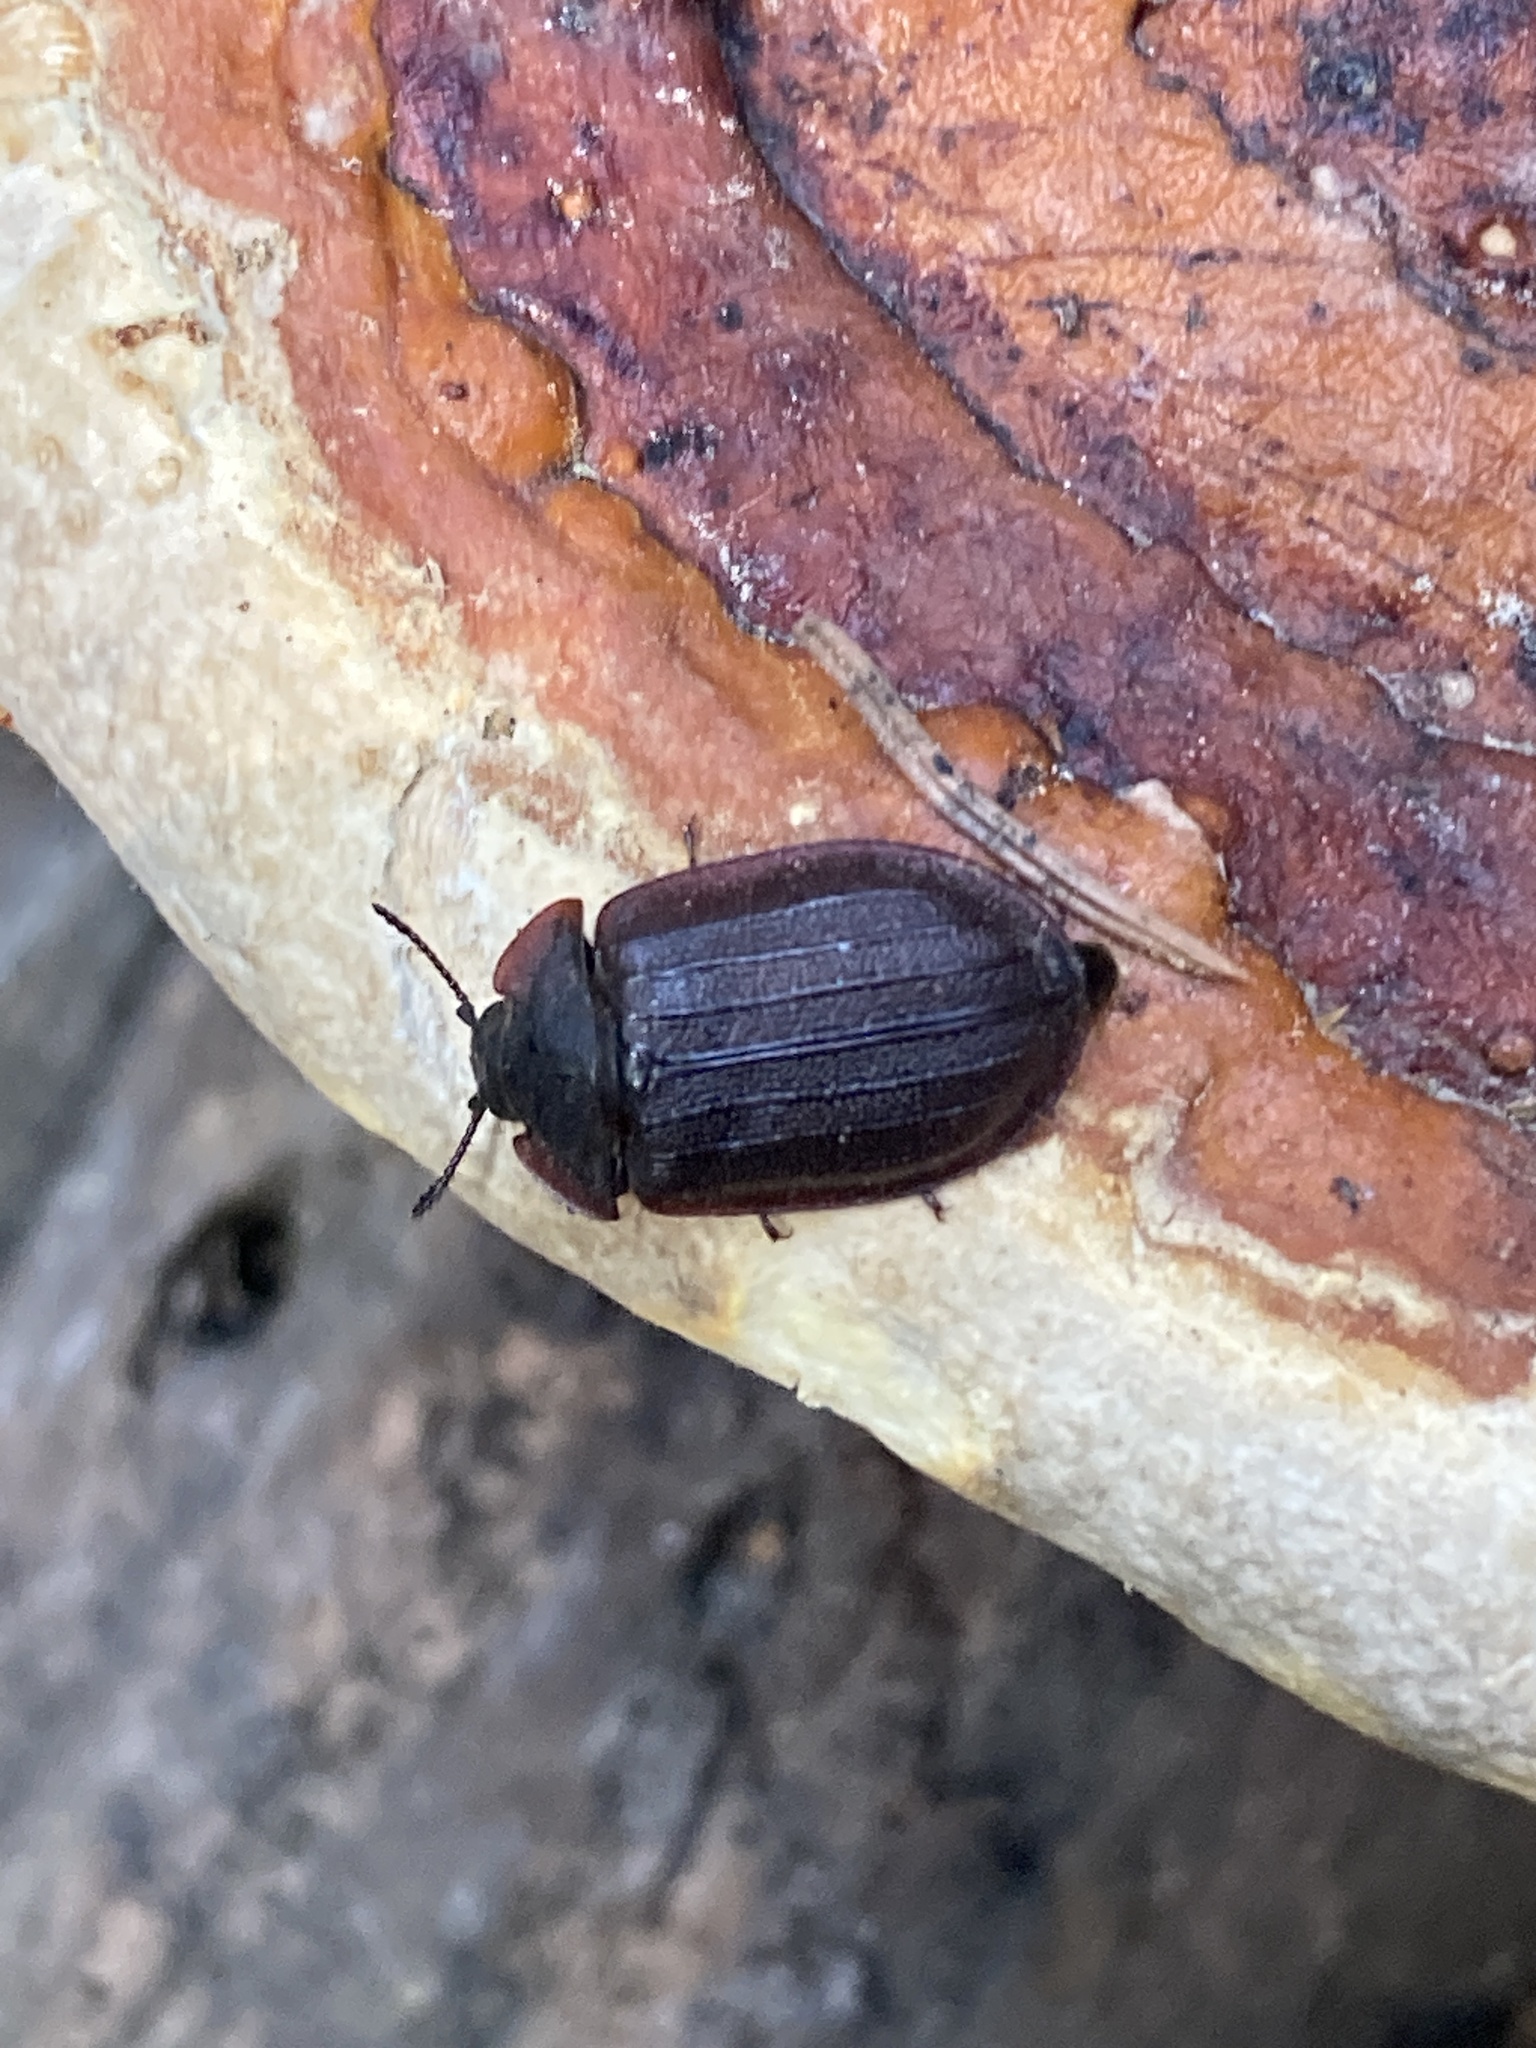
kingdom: Animalia
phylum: Arthropoda
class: Insecta
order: Coleoptera
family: Trogossitidae
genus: Peltis
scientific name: Peltis grossa
